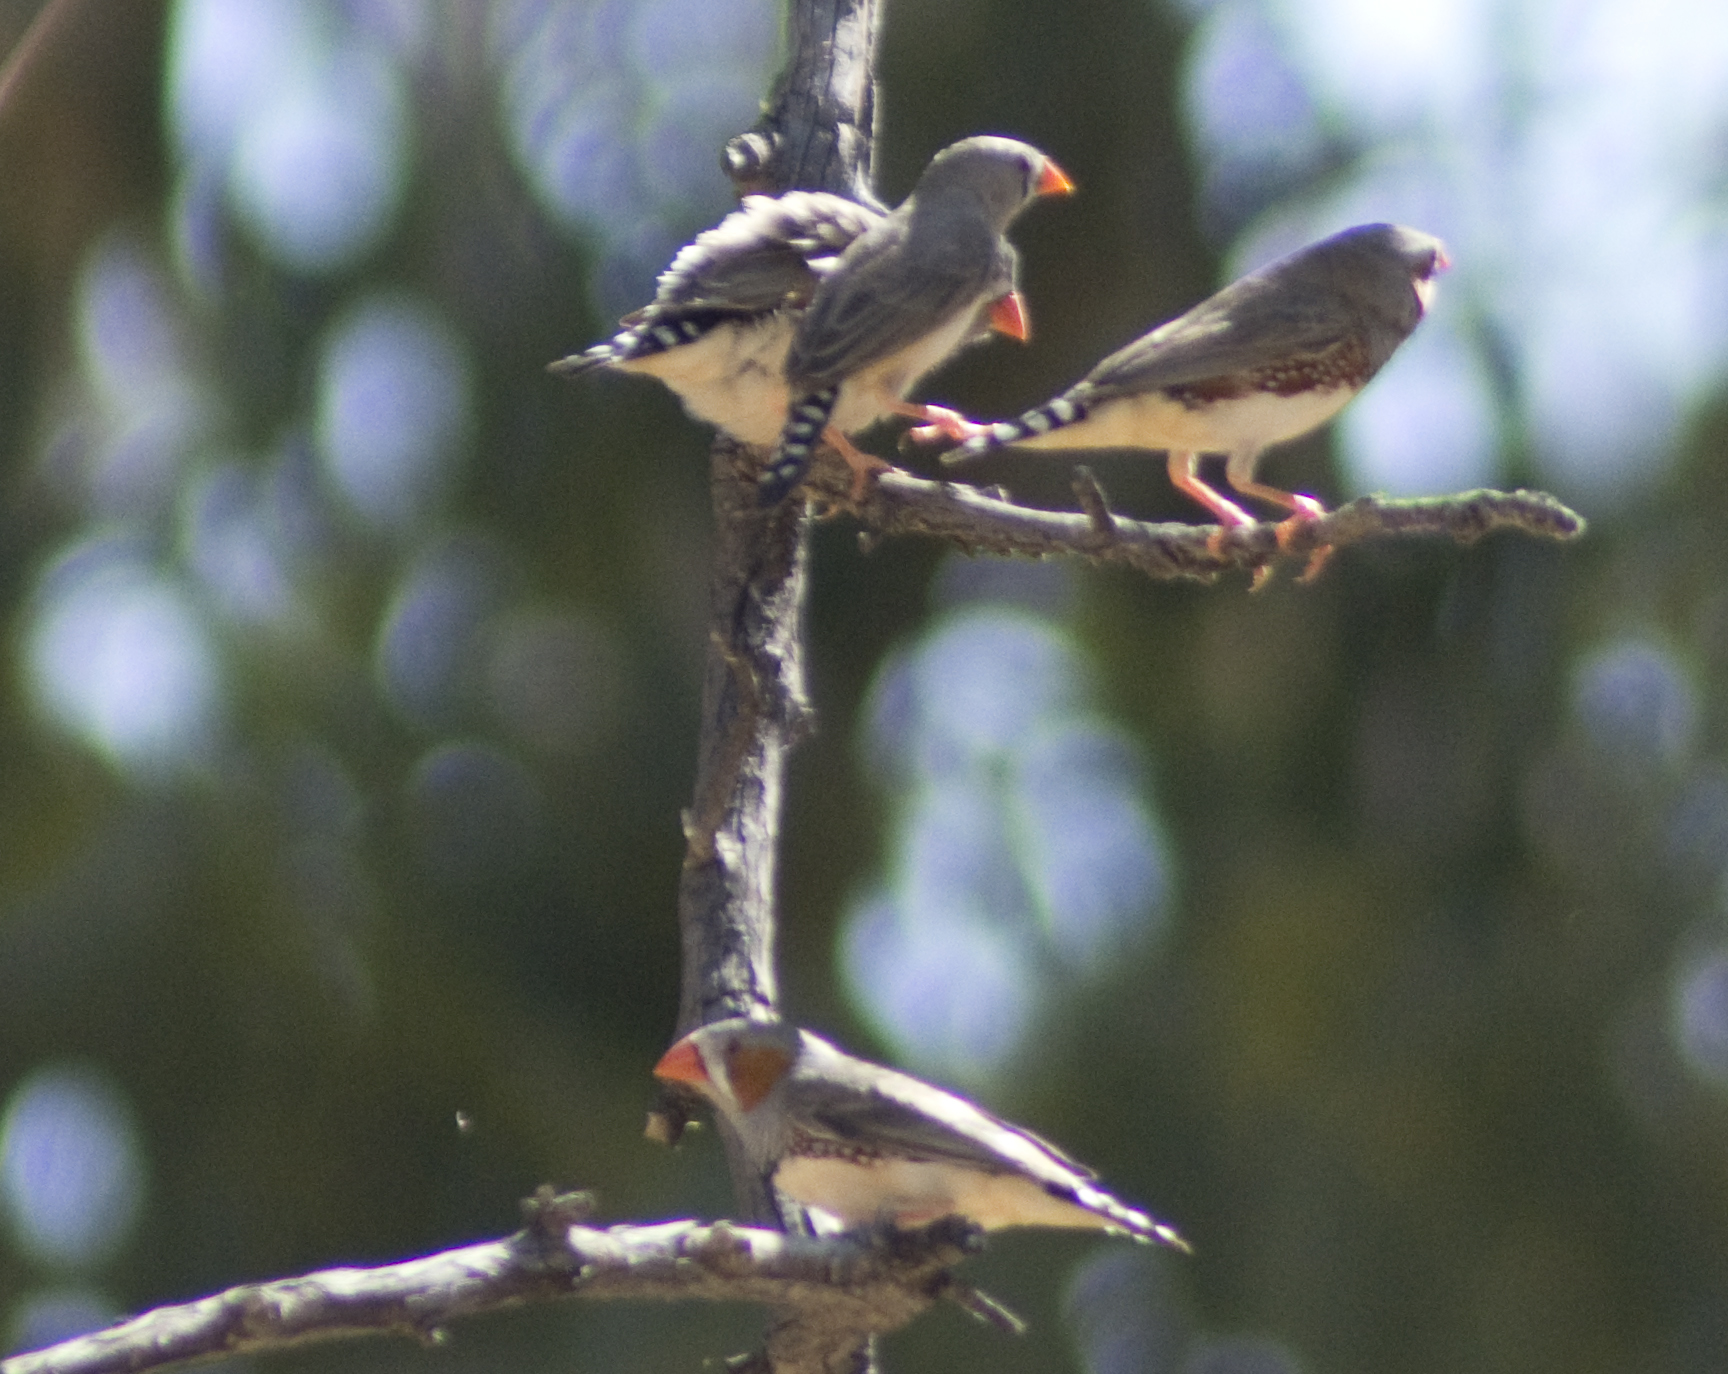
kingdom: Animalia
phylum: Chordata
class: Aves
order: Passeriformes
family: Estrildidae
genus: Taeniopygia
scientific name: Taeniopygia guttata
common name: Zebra finch
